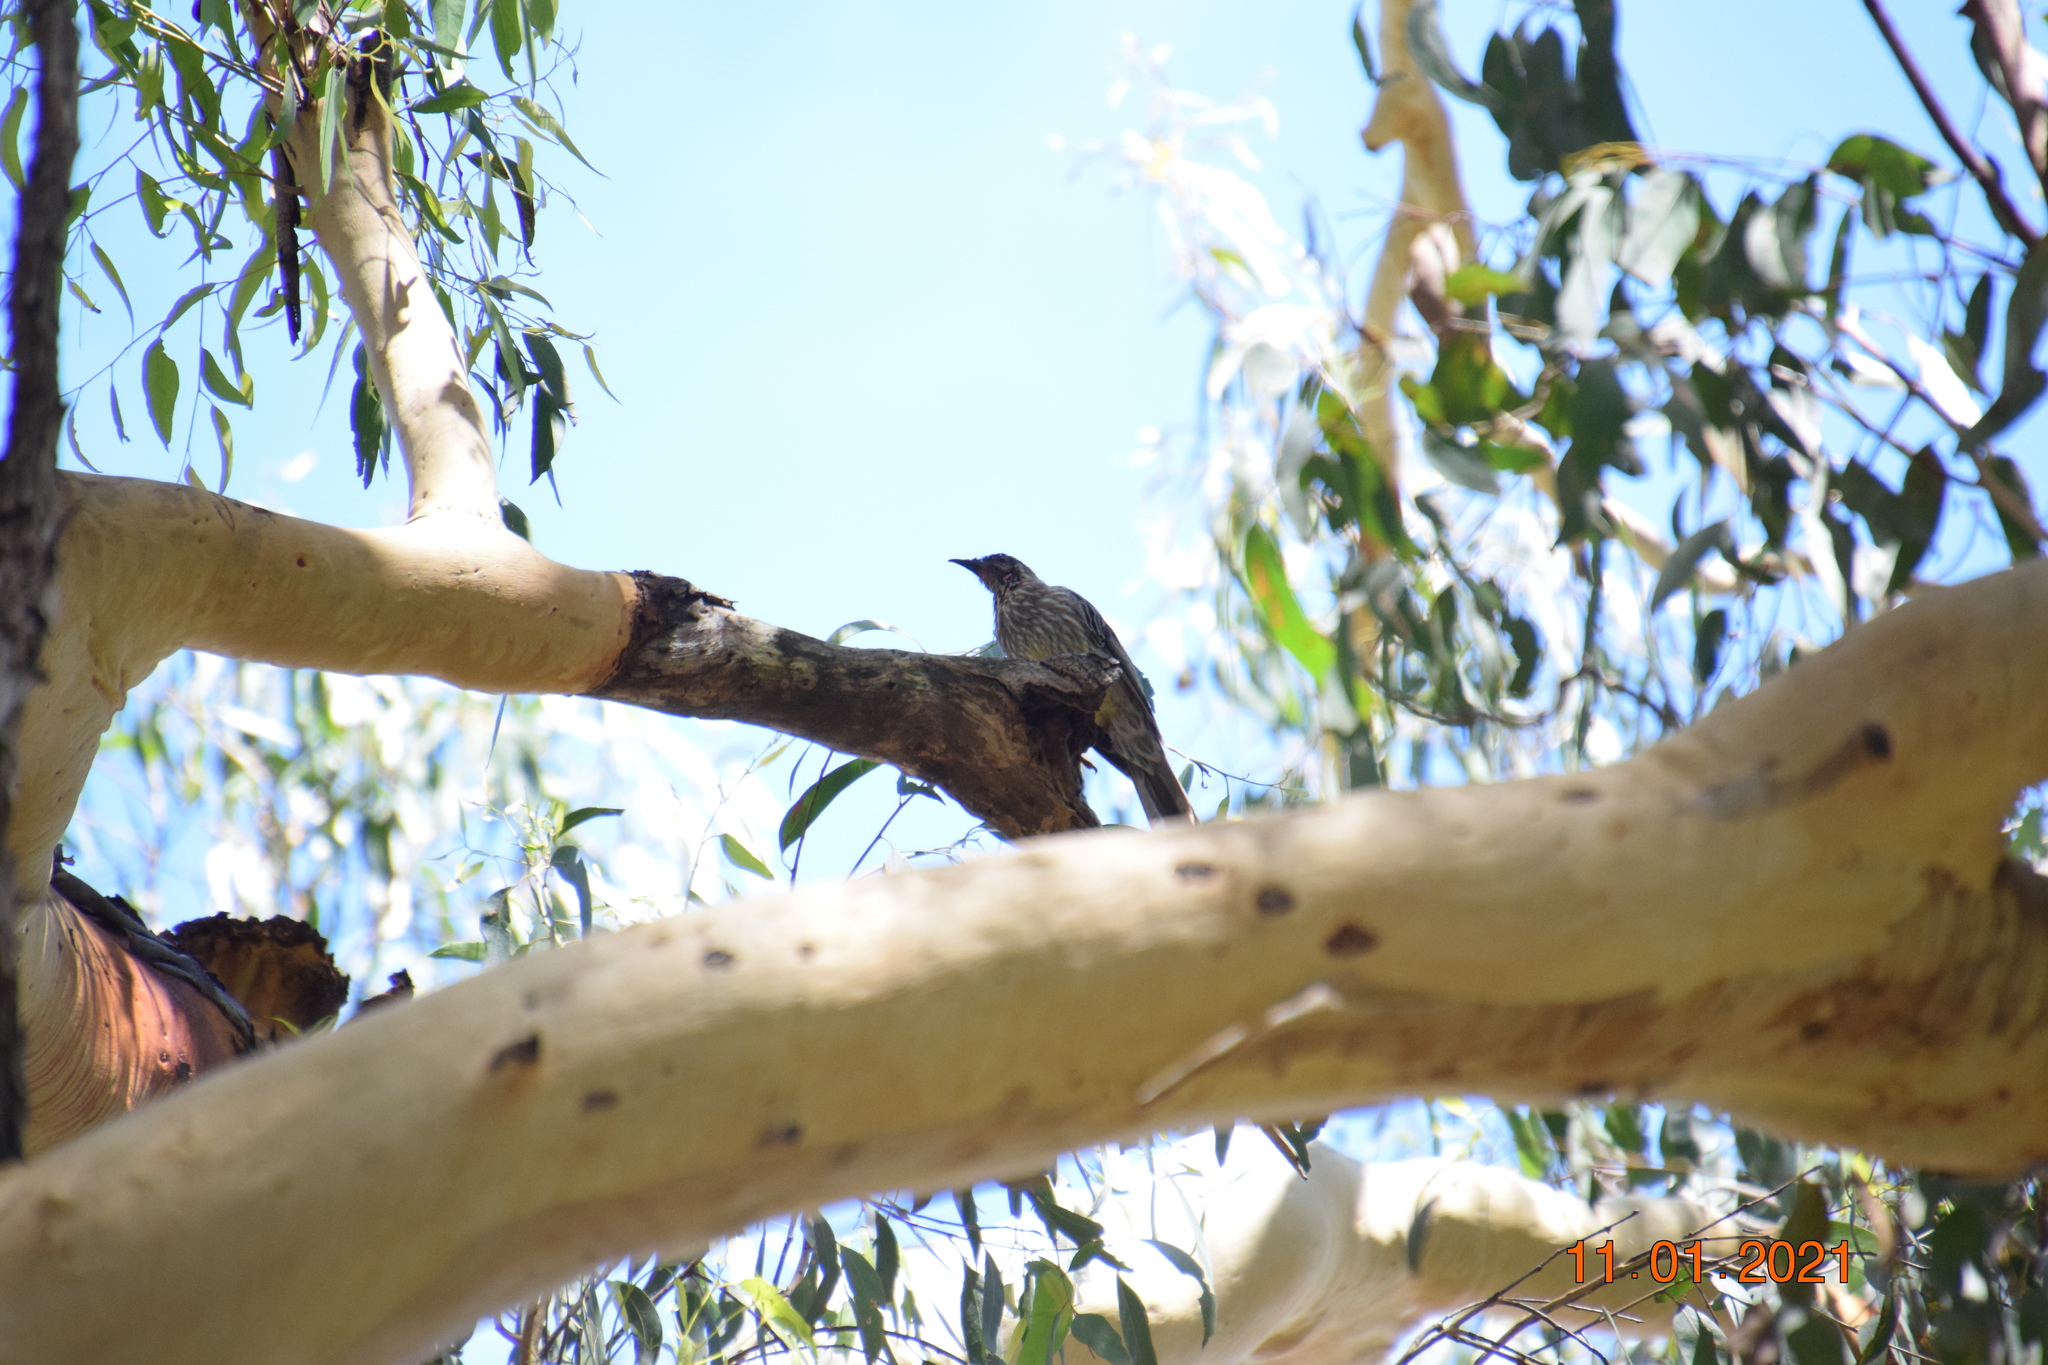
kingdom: Animalia
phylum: Chordata
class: Aves
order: Passeriformes
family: Meliphagidae
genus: Anthochaera
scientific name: Anthochaera carunculata
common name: Red wattlebird
